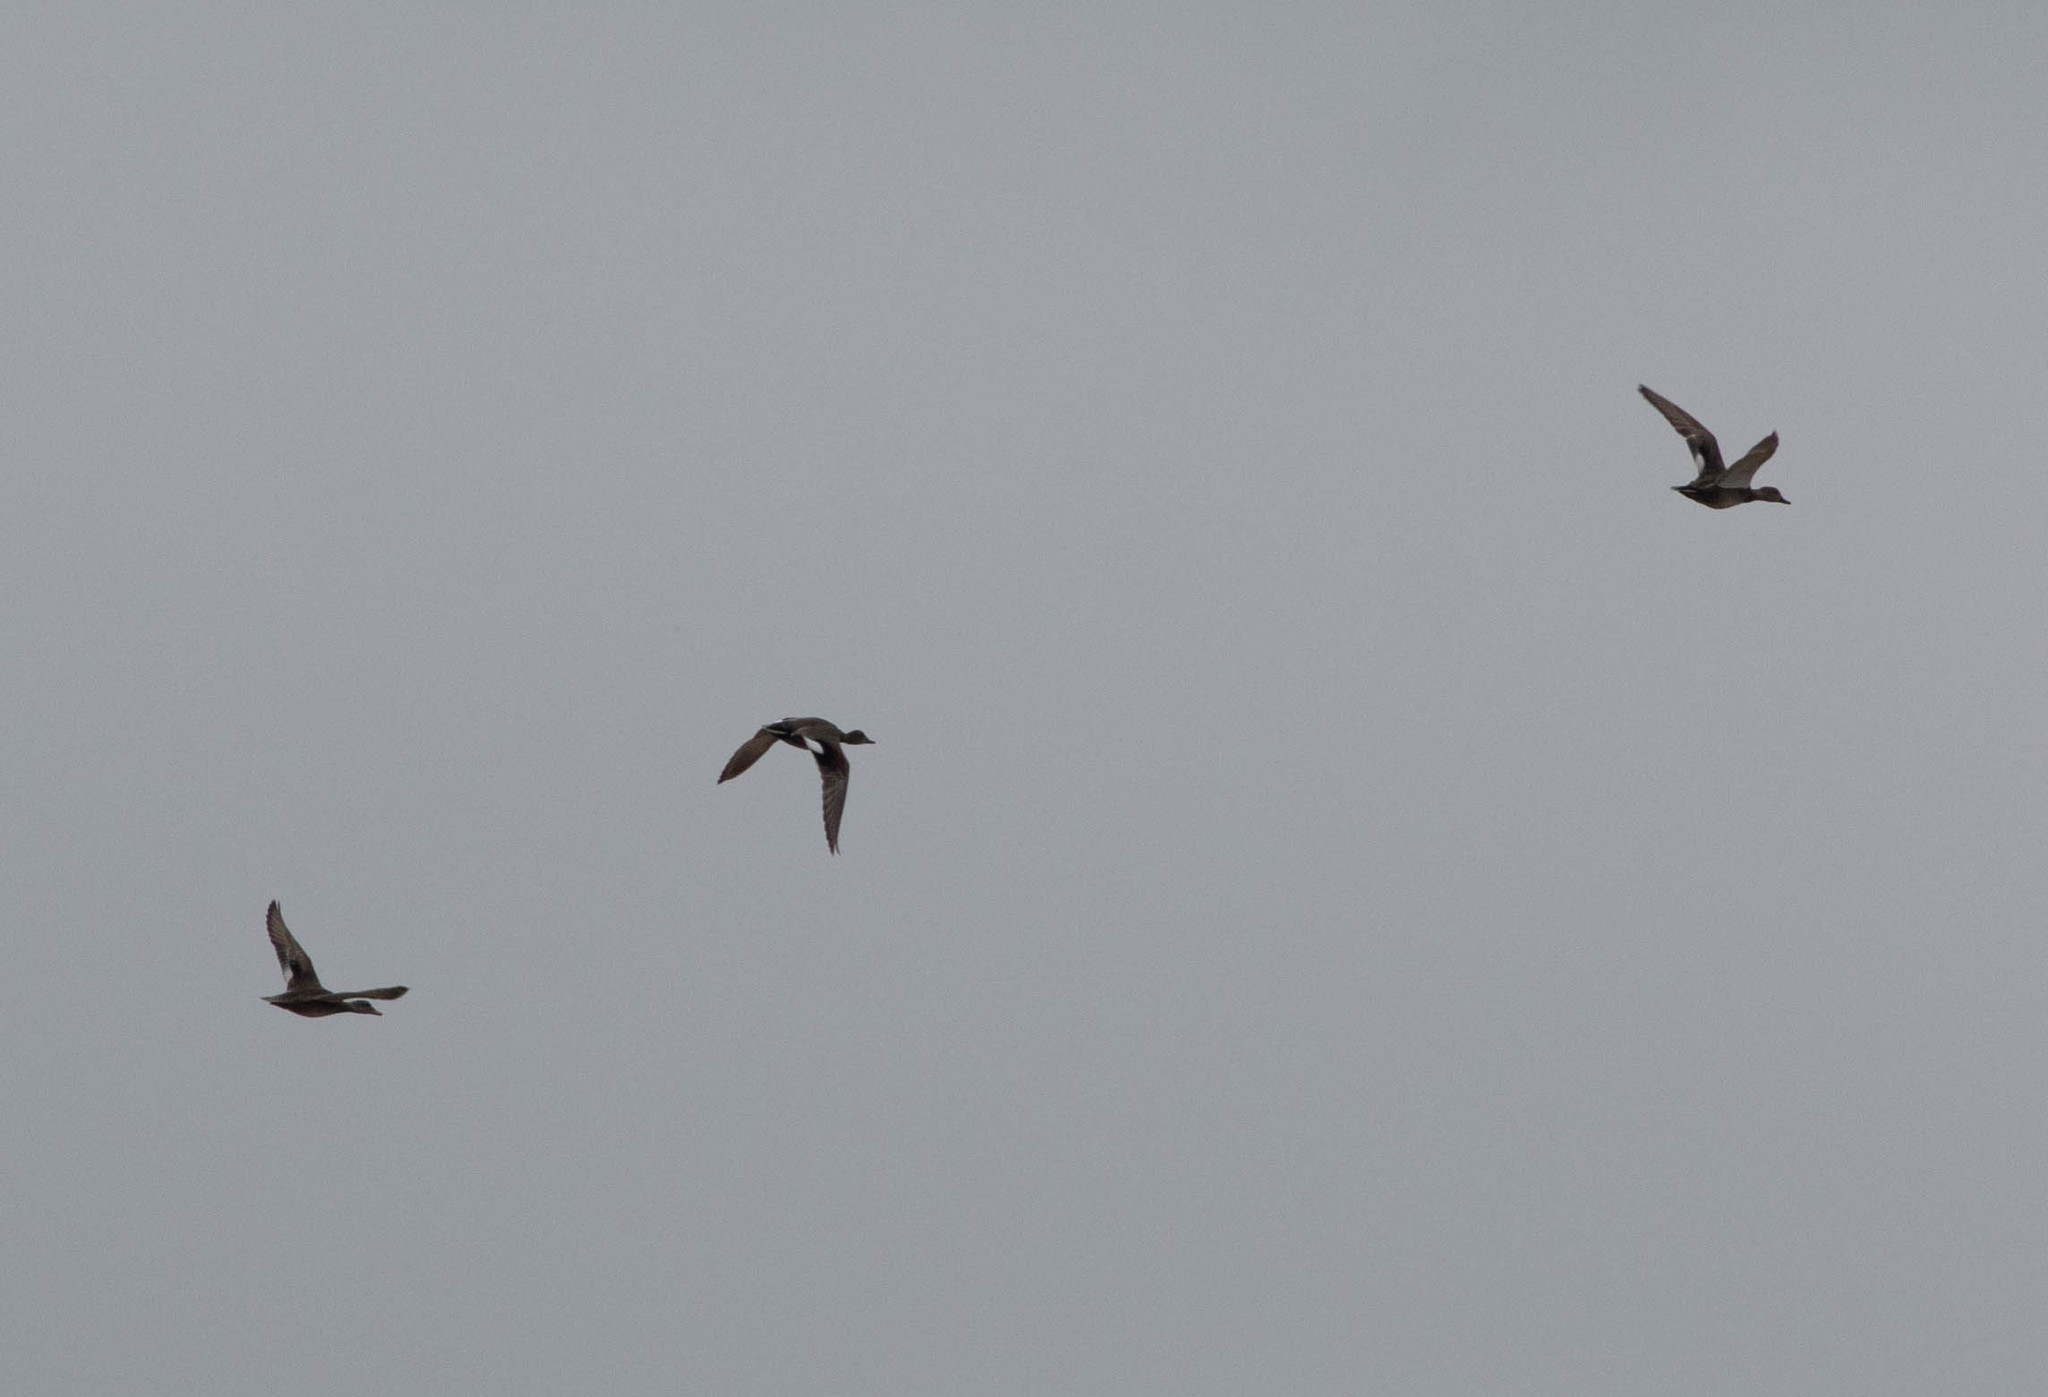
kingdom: Animalia
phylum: Chordata
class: Aves
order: Anseriformes
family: Anatidae
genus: Mareca
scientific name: Mareca strepera
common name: Gadwall
